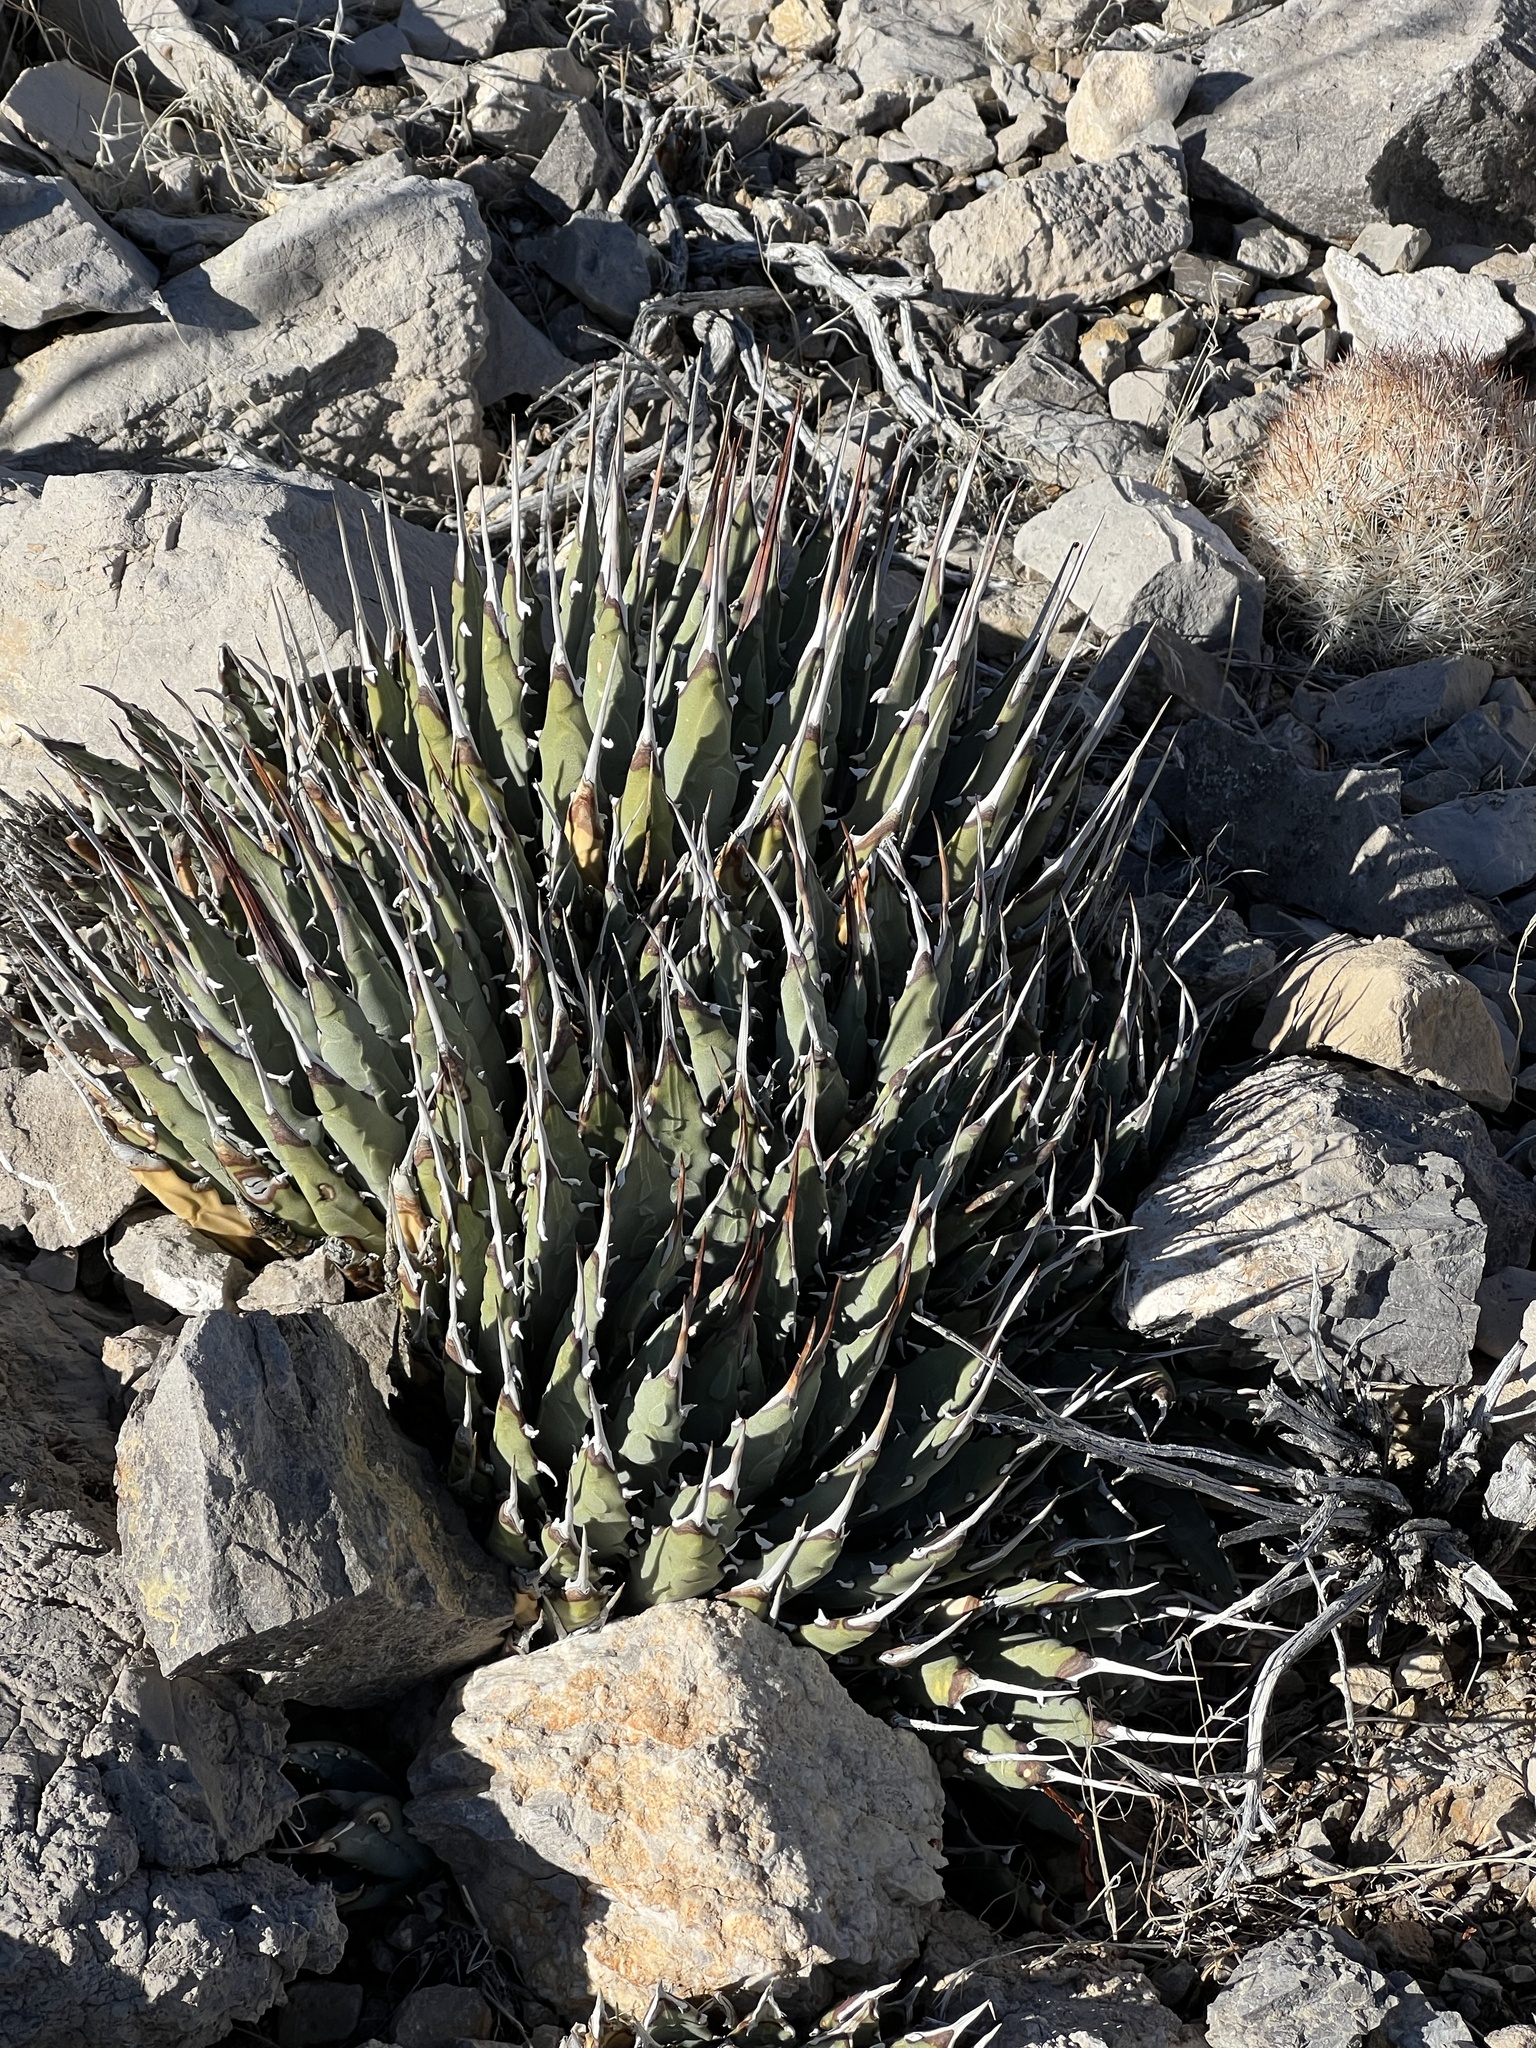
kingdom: Plantae
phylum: Tracheophyta
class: Liliopsida
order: Asparagales
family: Asparagaceae
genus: Agave
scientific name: Agave utahensis
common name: Utah agave
